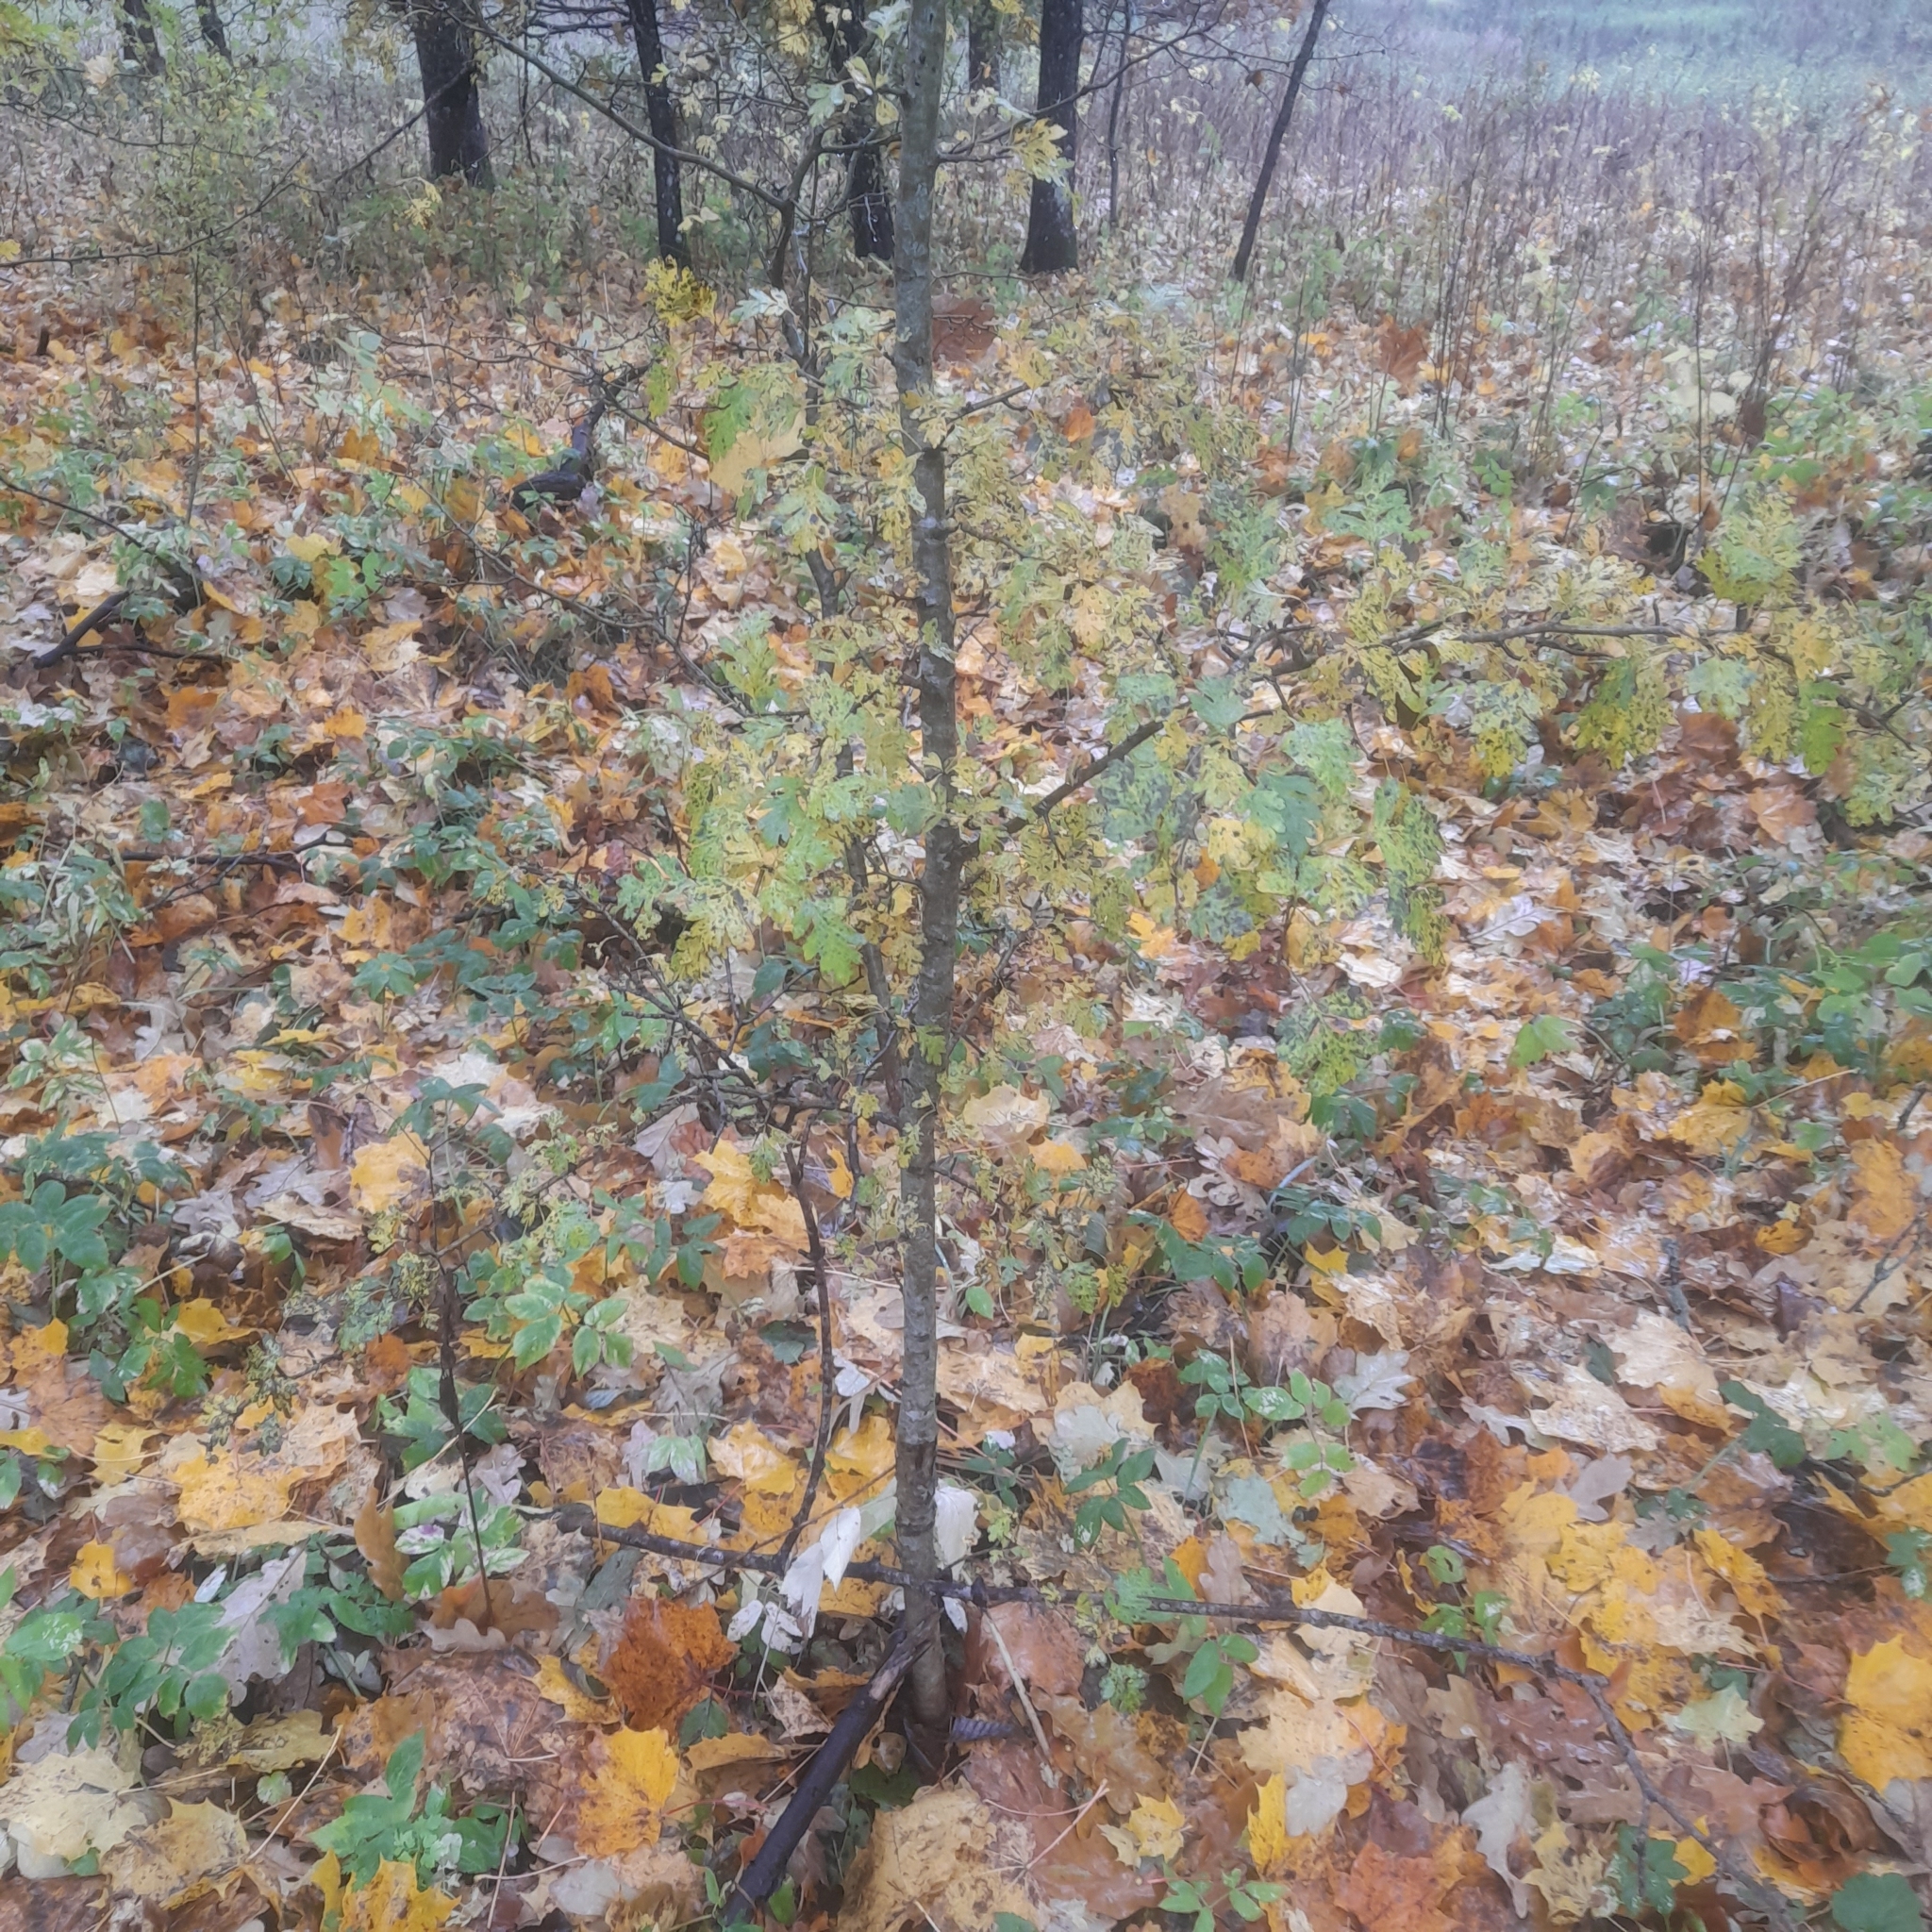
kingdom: Plantae
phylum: Tracheophyta
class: Magnoliopsida
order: Rosales
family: Rosaceae
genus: Crataegus
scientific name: Crataegus monogyna
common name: Hawthorn
